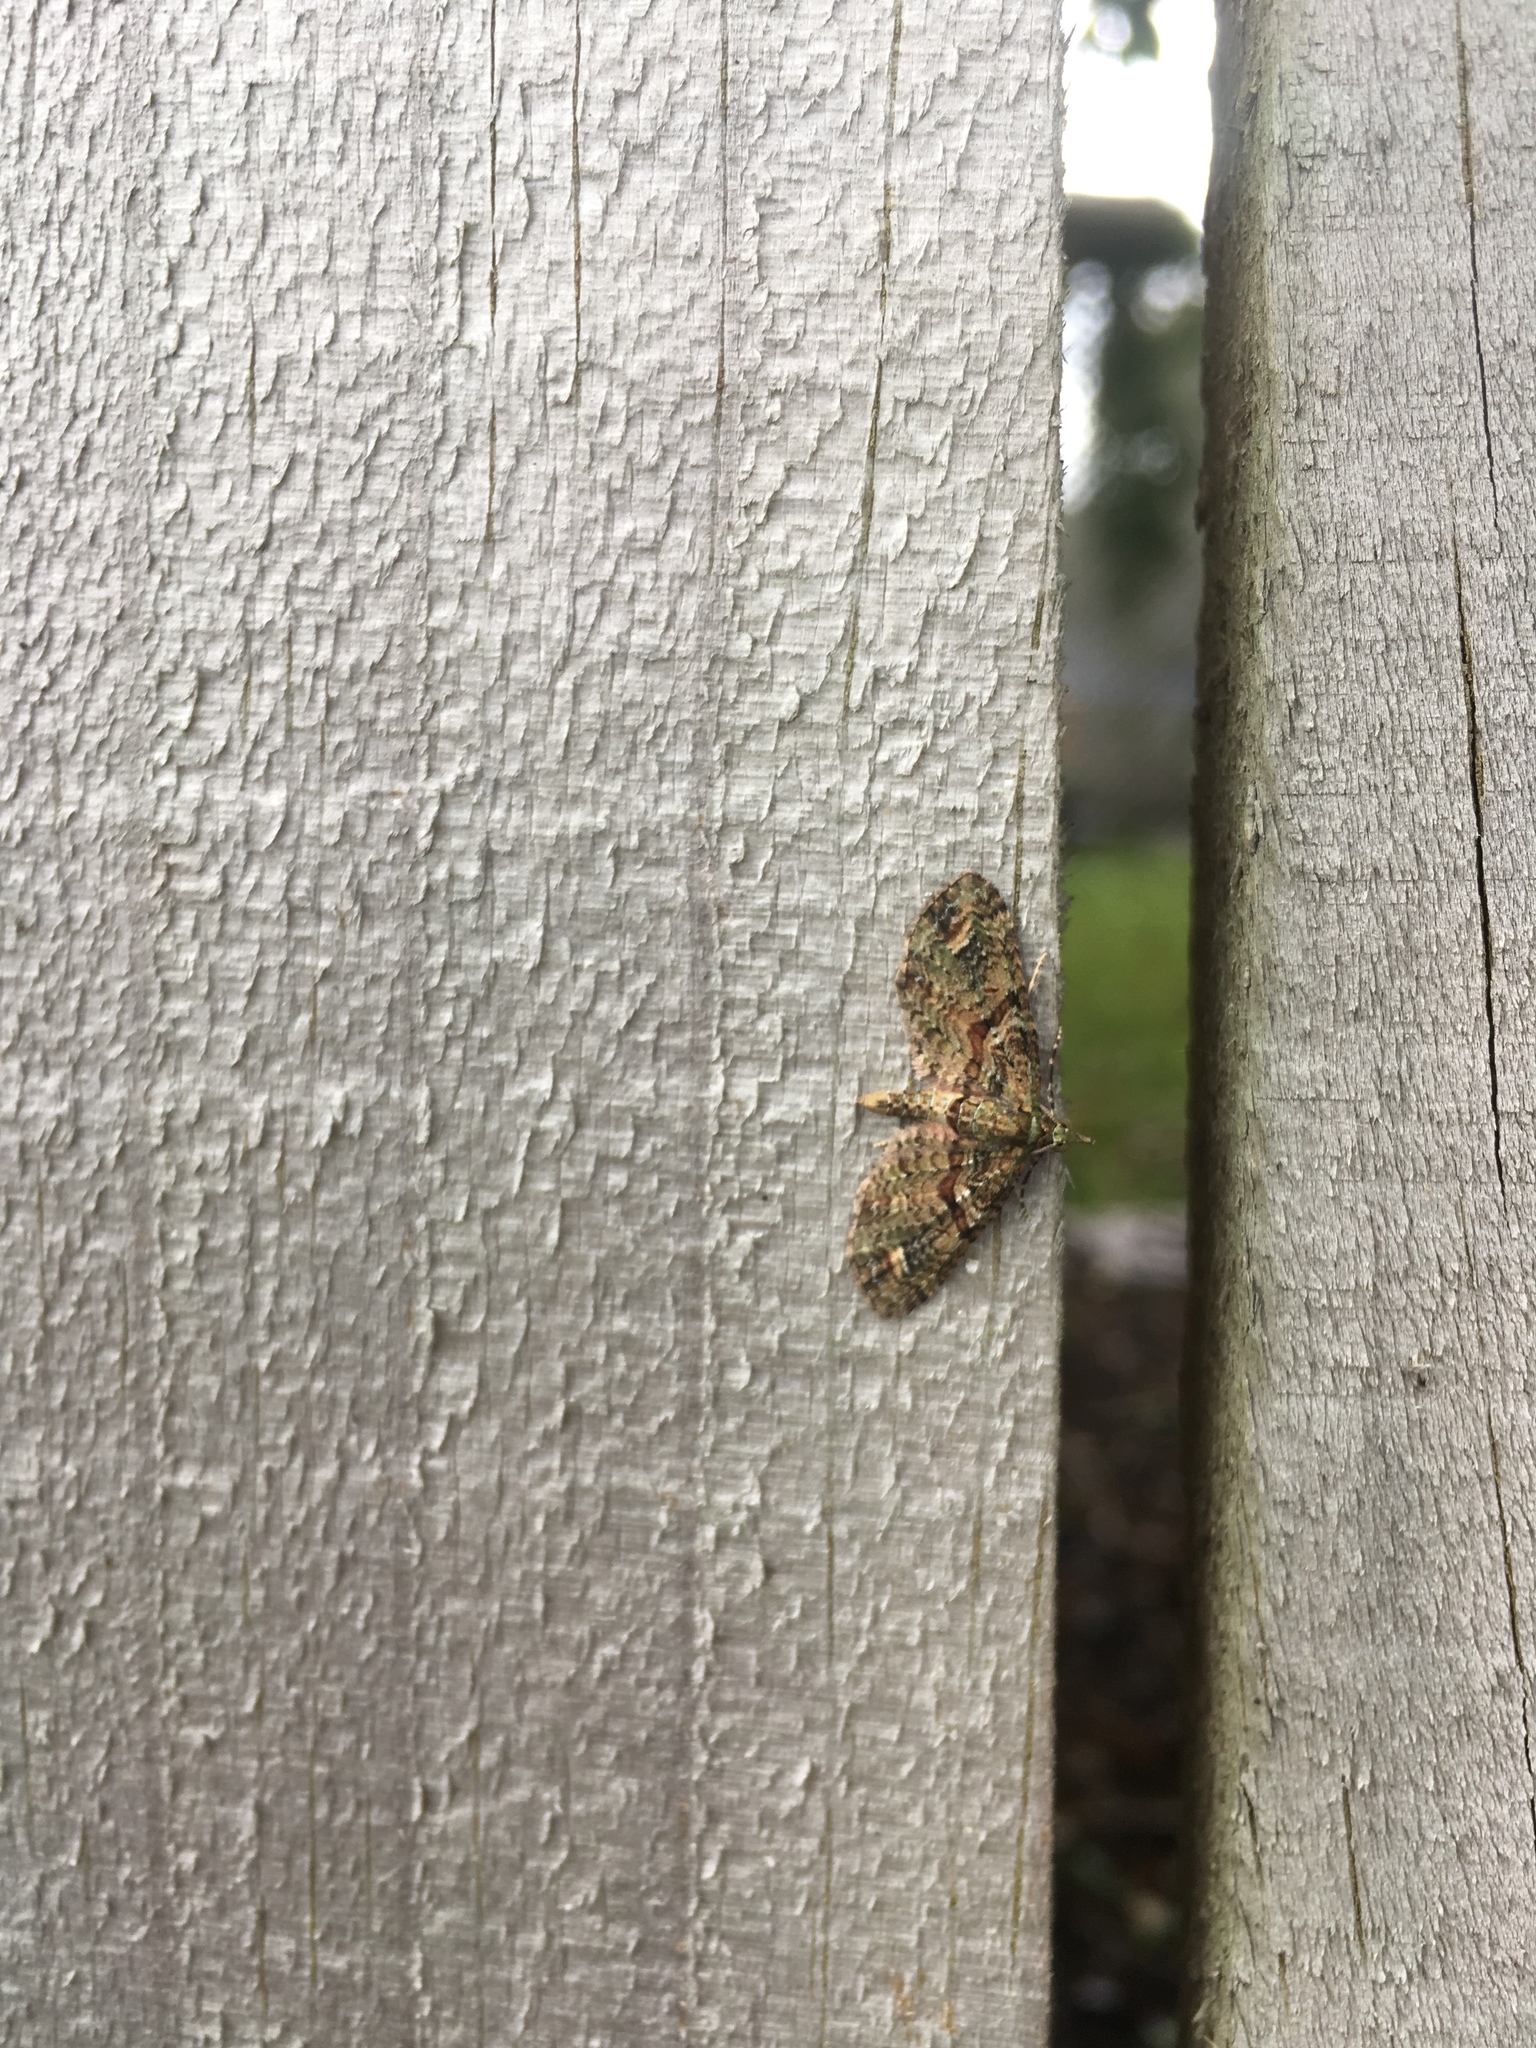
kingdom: Animalia
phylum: Arthropoda
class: Insecta
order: Lepidoptera
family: Geometridae
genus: Idaea
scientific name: Idaea mutanda
